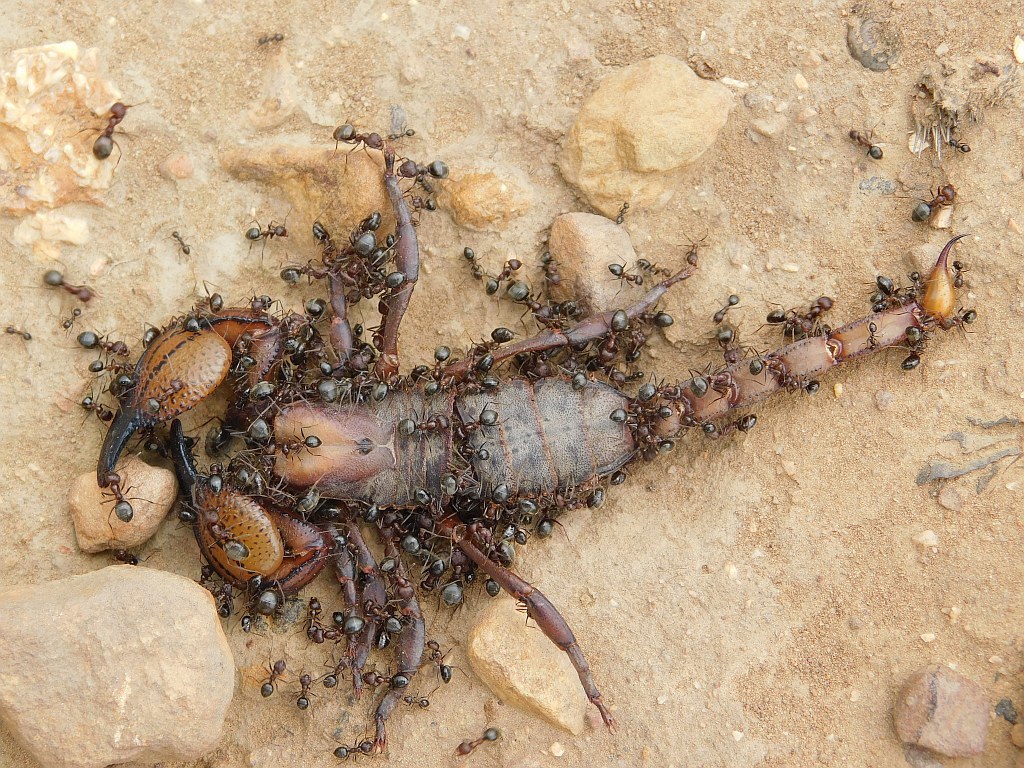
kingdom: Animalia
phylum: Arthropoda
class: Arachnida
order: Scorpiones
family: Scorpionidae
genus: Opistophthalmus
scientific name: Opistophthalmus macer
